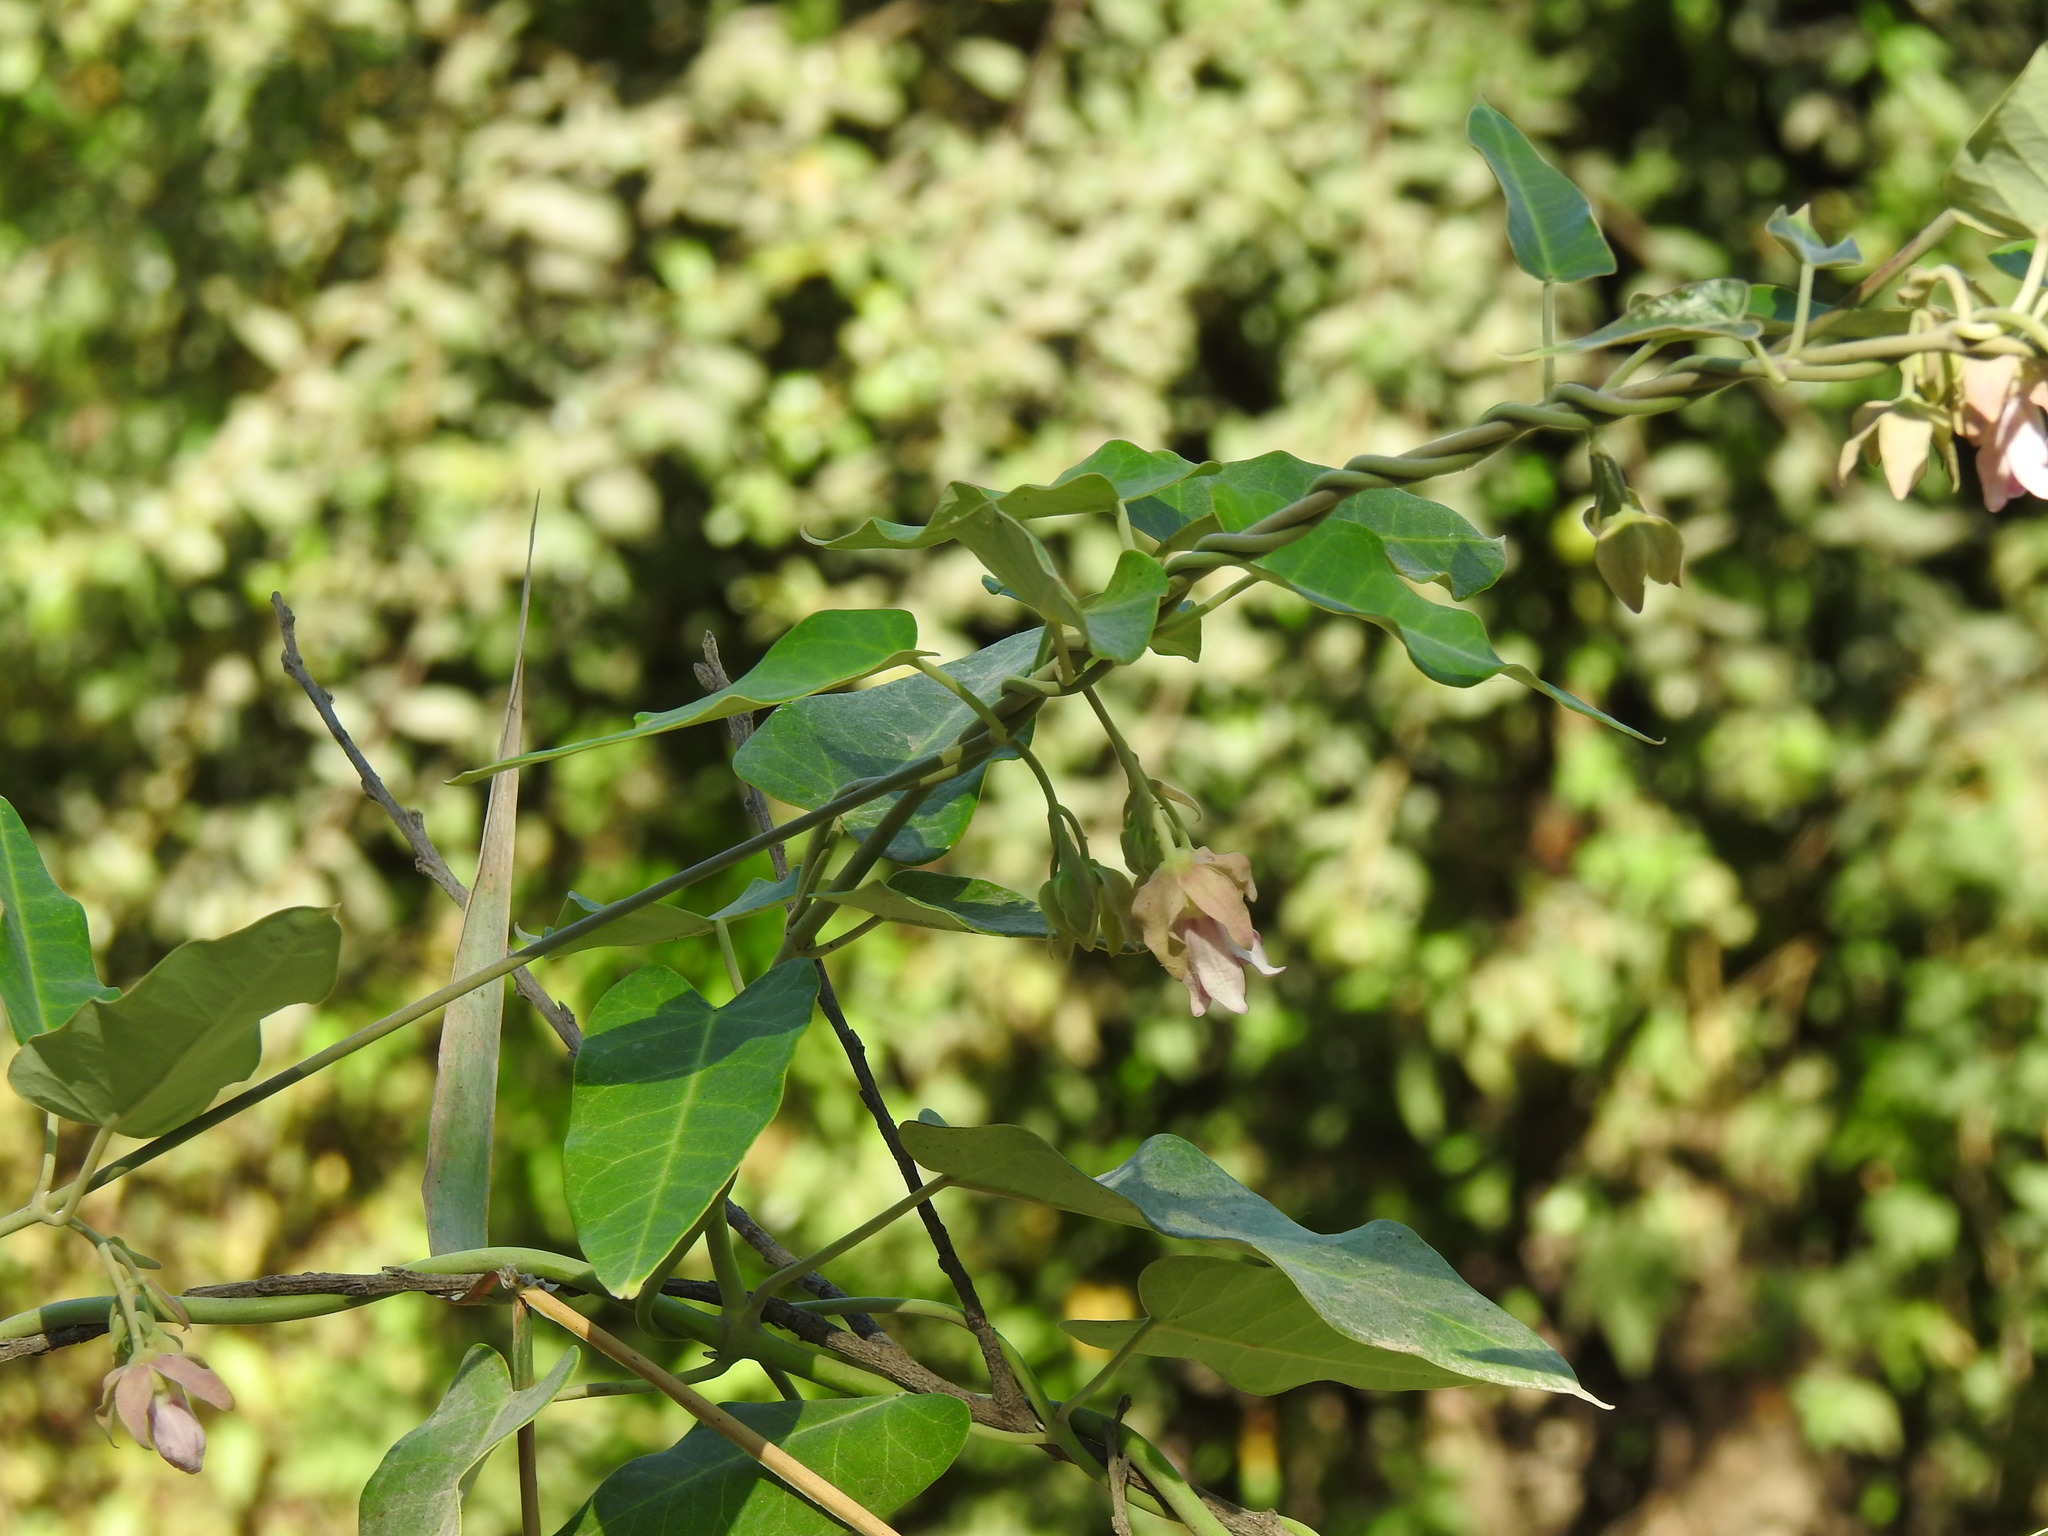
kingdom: Plantae
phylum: Tracheophyta
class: Magnoliopsida
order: Gentianales
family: Apocynaceae
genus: Araujia
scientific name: Araujia sericifera
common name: White bladderflower
